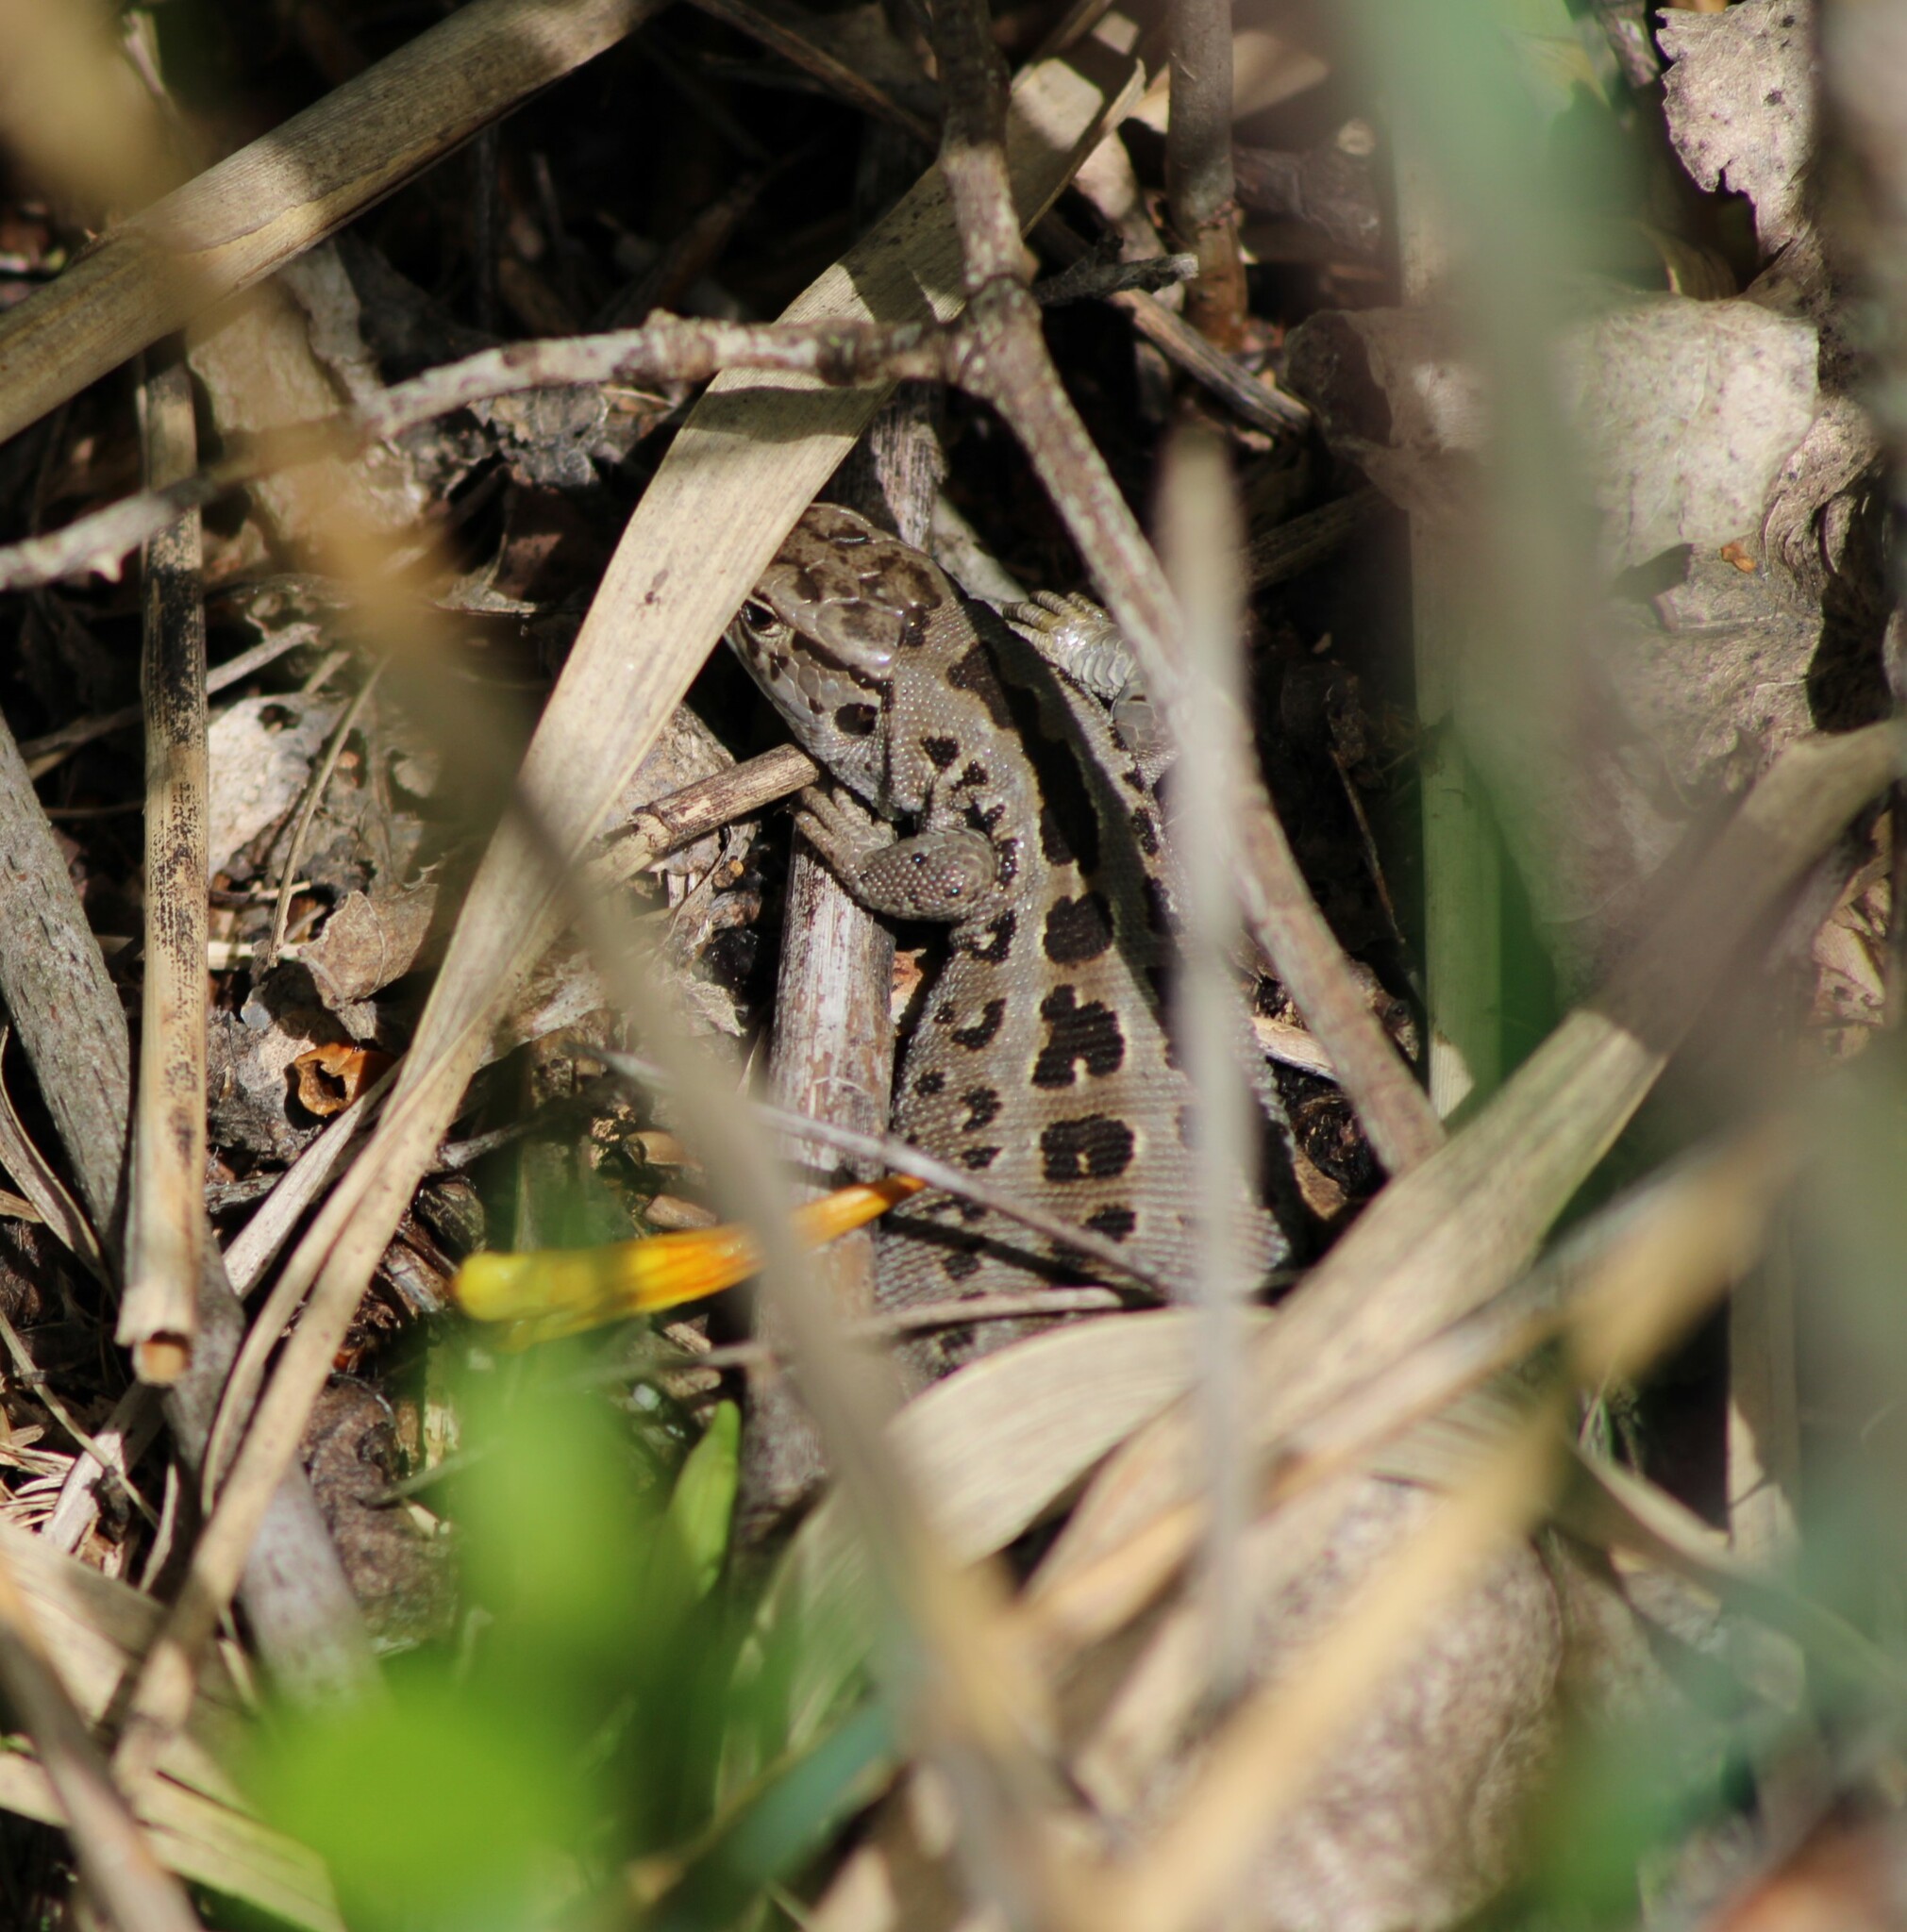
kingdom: Animalia
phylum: Chordata
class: Squamata
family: Lacertidae
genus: Lacerta
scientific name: Lacerta agilis
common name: Sand lizard
